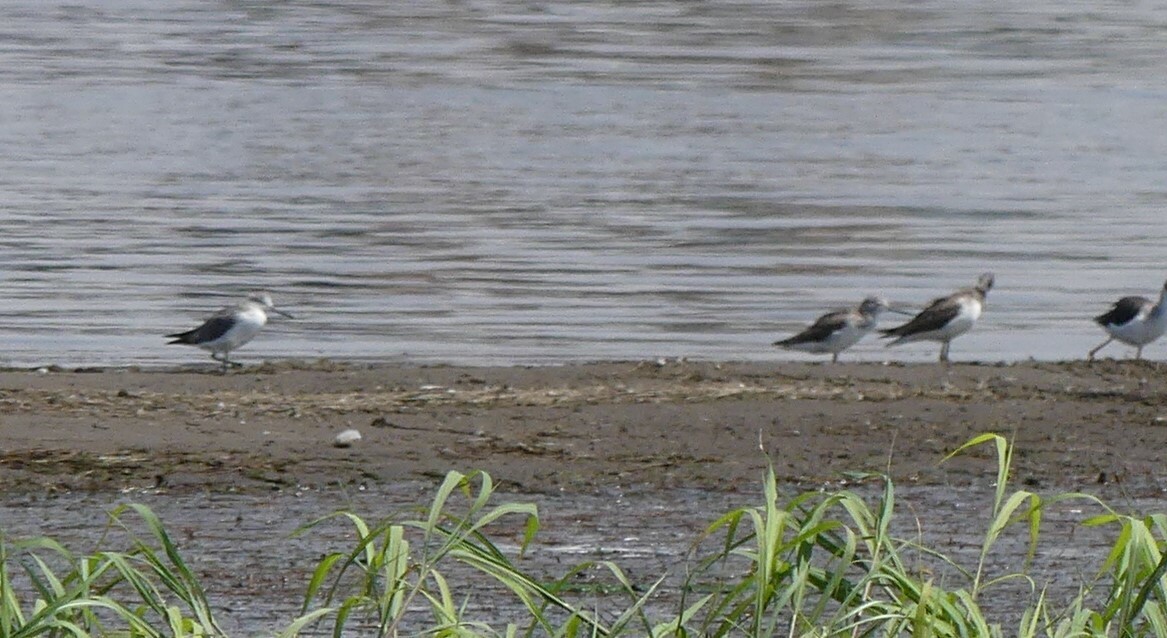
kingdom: Animalia
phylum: Chordata
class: Aves
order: Charadriiformes
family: Scolopacidae
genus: Tringa
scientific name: Tringa nebularia
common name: Common greenshank
